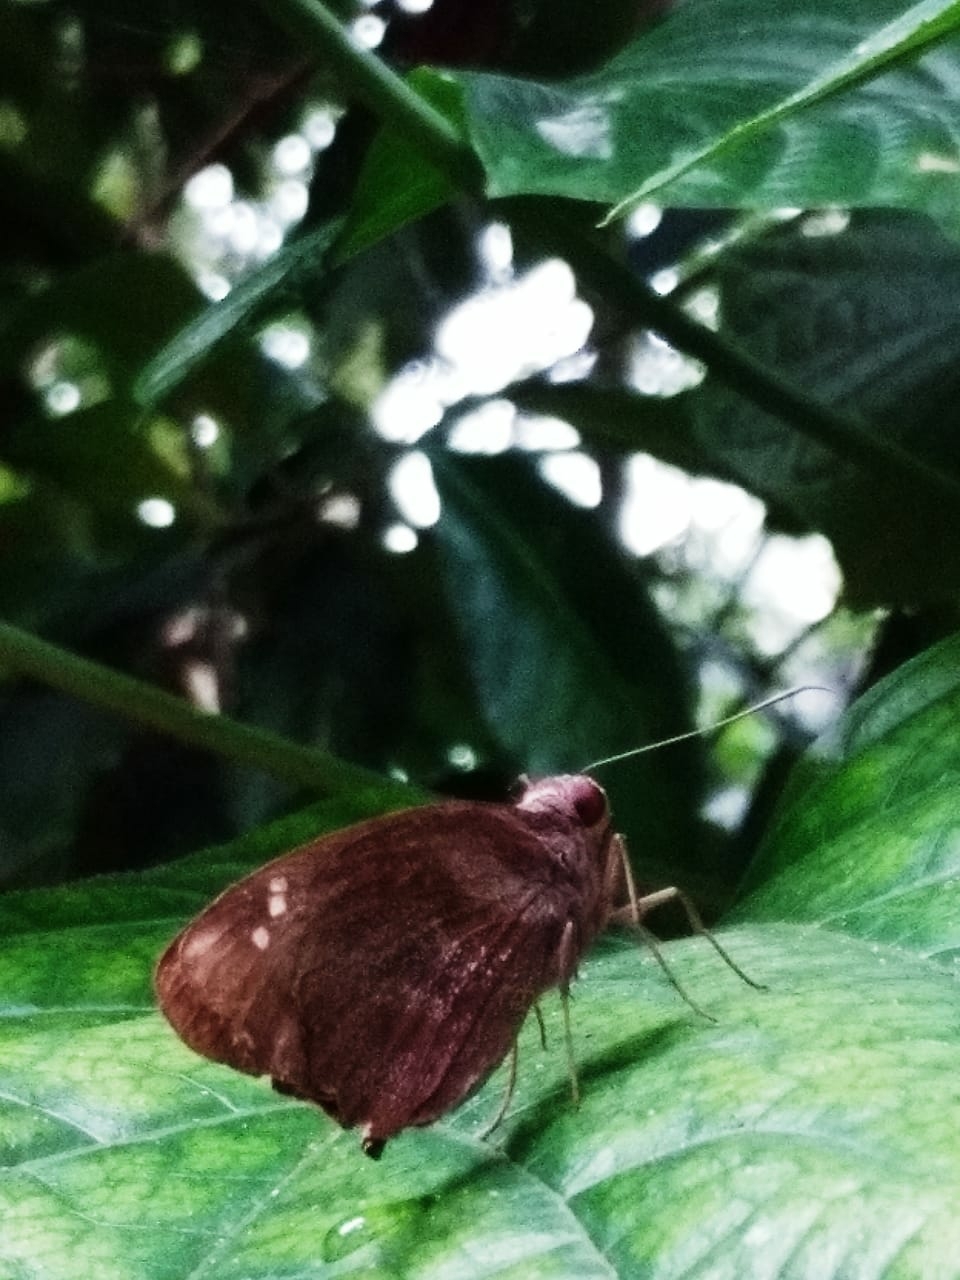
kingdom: Animalia
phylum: Arthropoda
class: Insecta
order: Lepidoptera
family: Hesperiidae
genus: Gangara
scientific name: Gangara thyrsis
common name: Giant redeye
